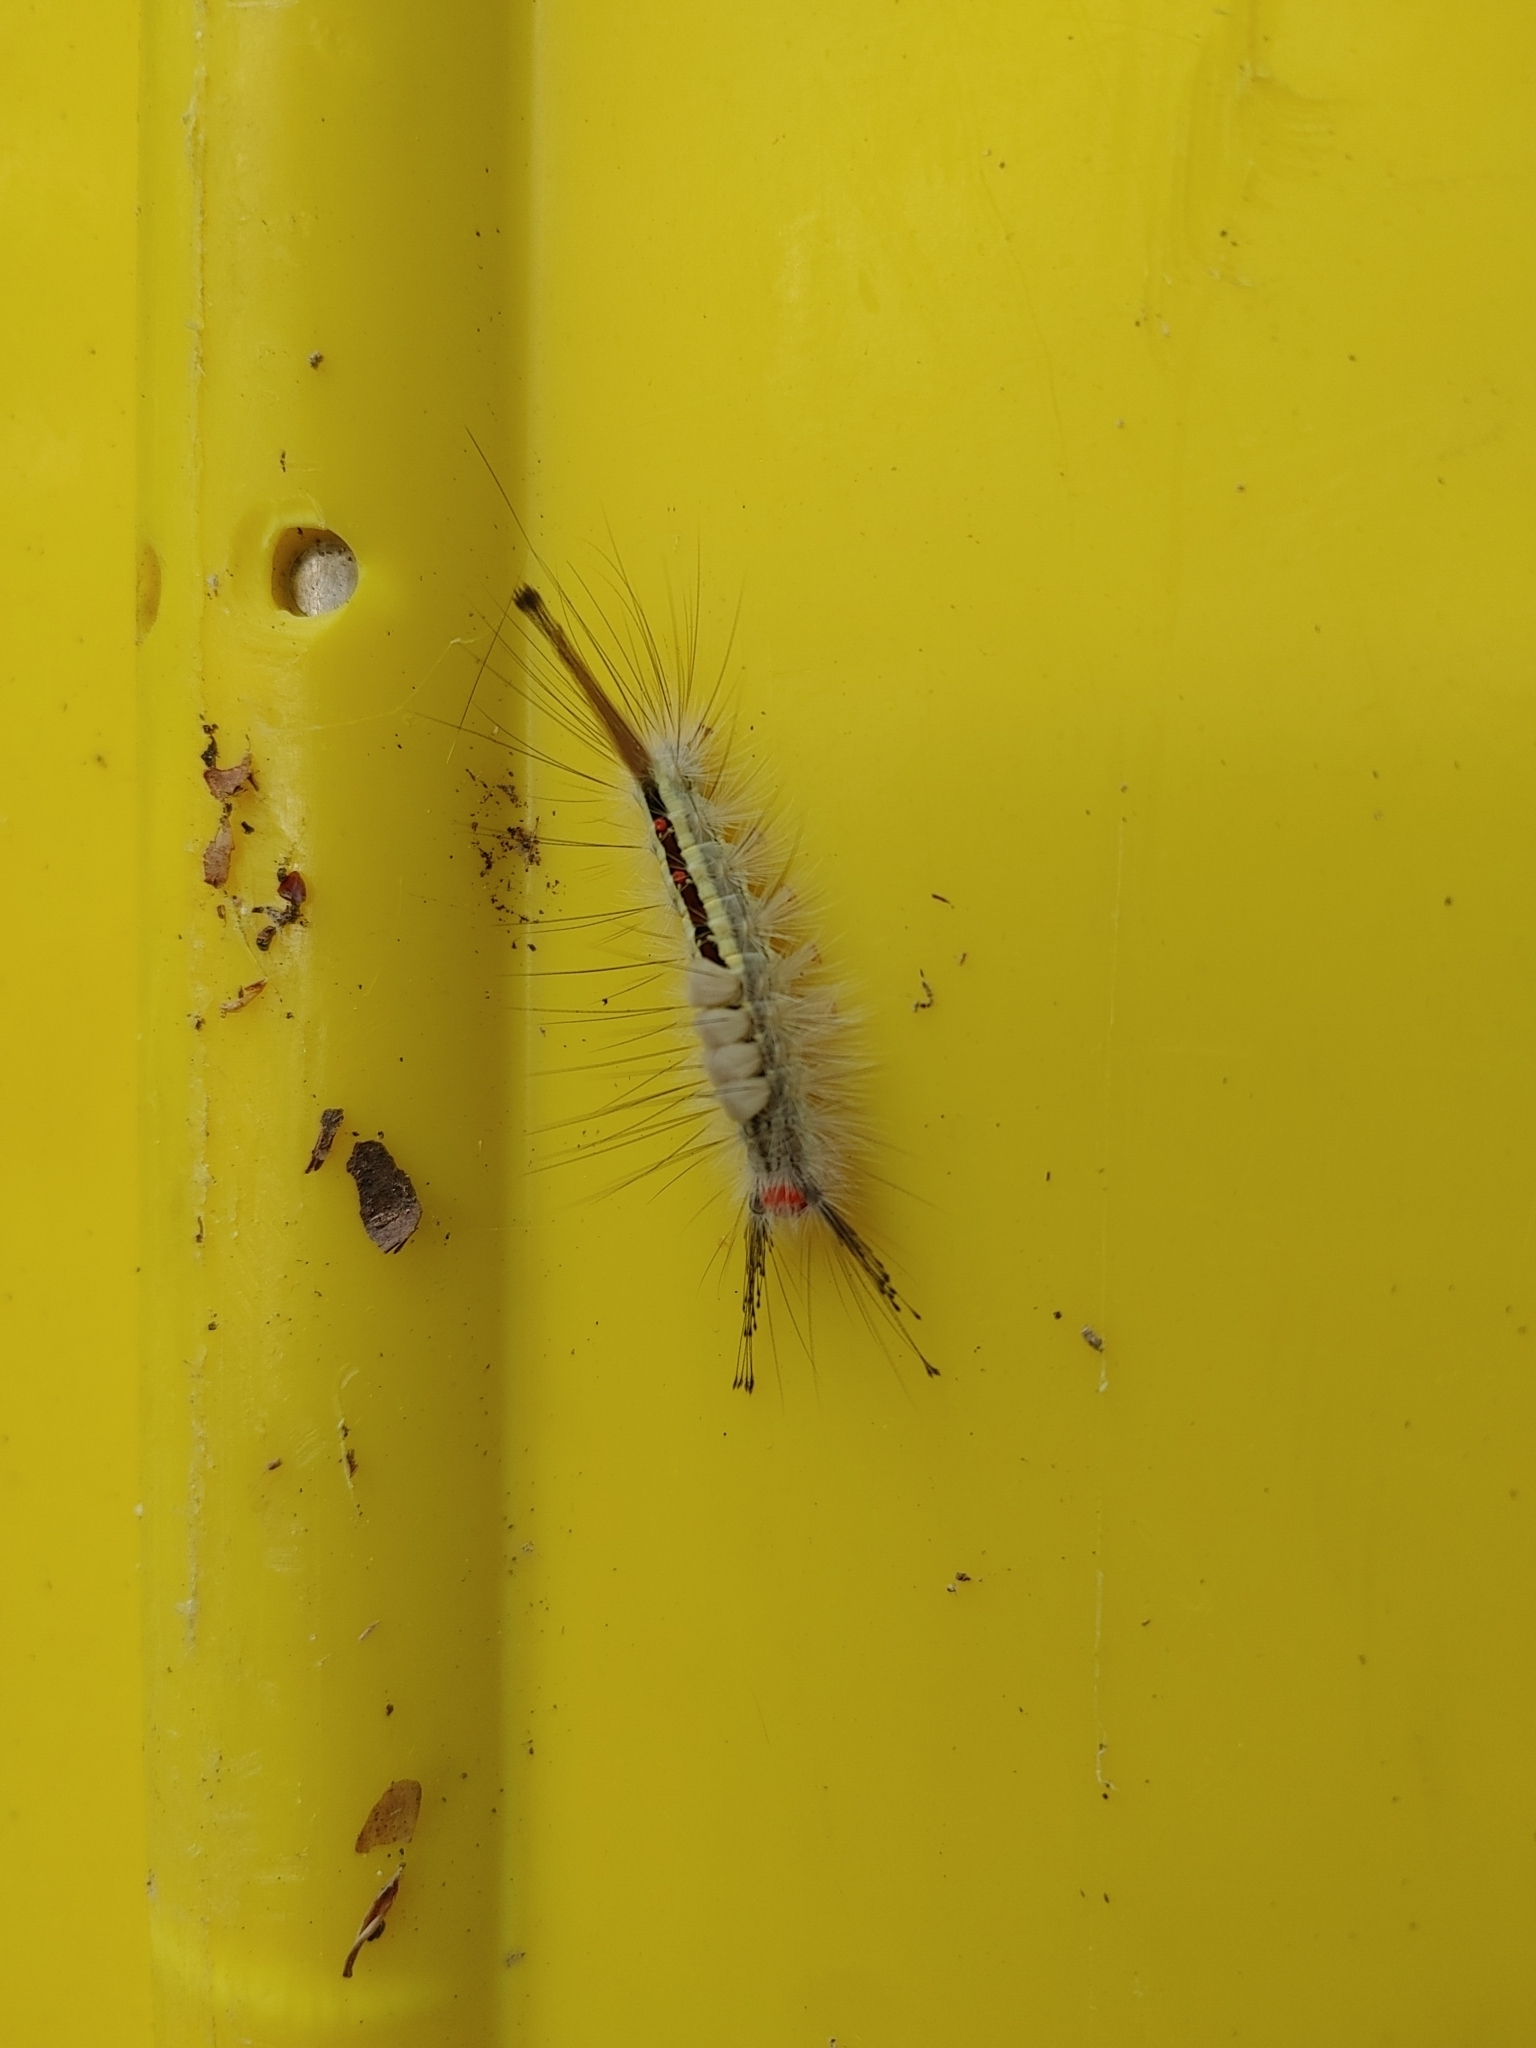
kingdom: Animalia
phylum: Arthropoda
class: Insecta
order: Lepidoptera
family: Erebidae
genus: Orgyia
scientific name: Orgyia leucostigma
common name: White-marked tussock moth
